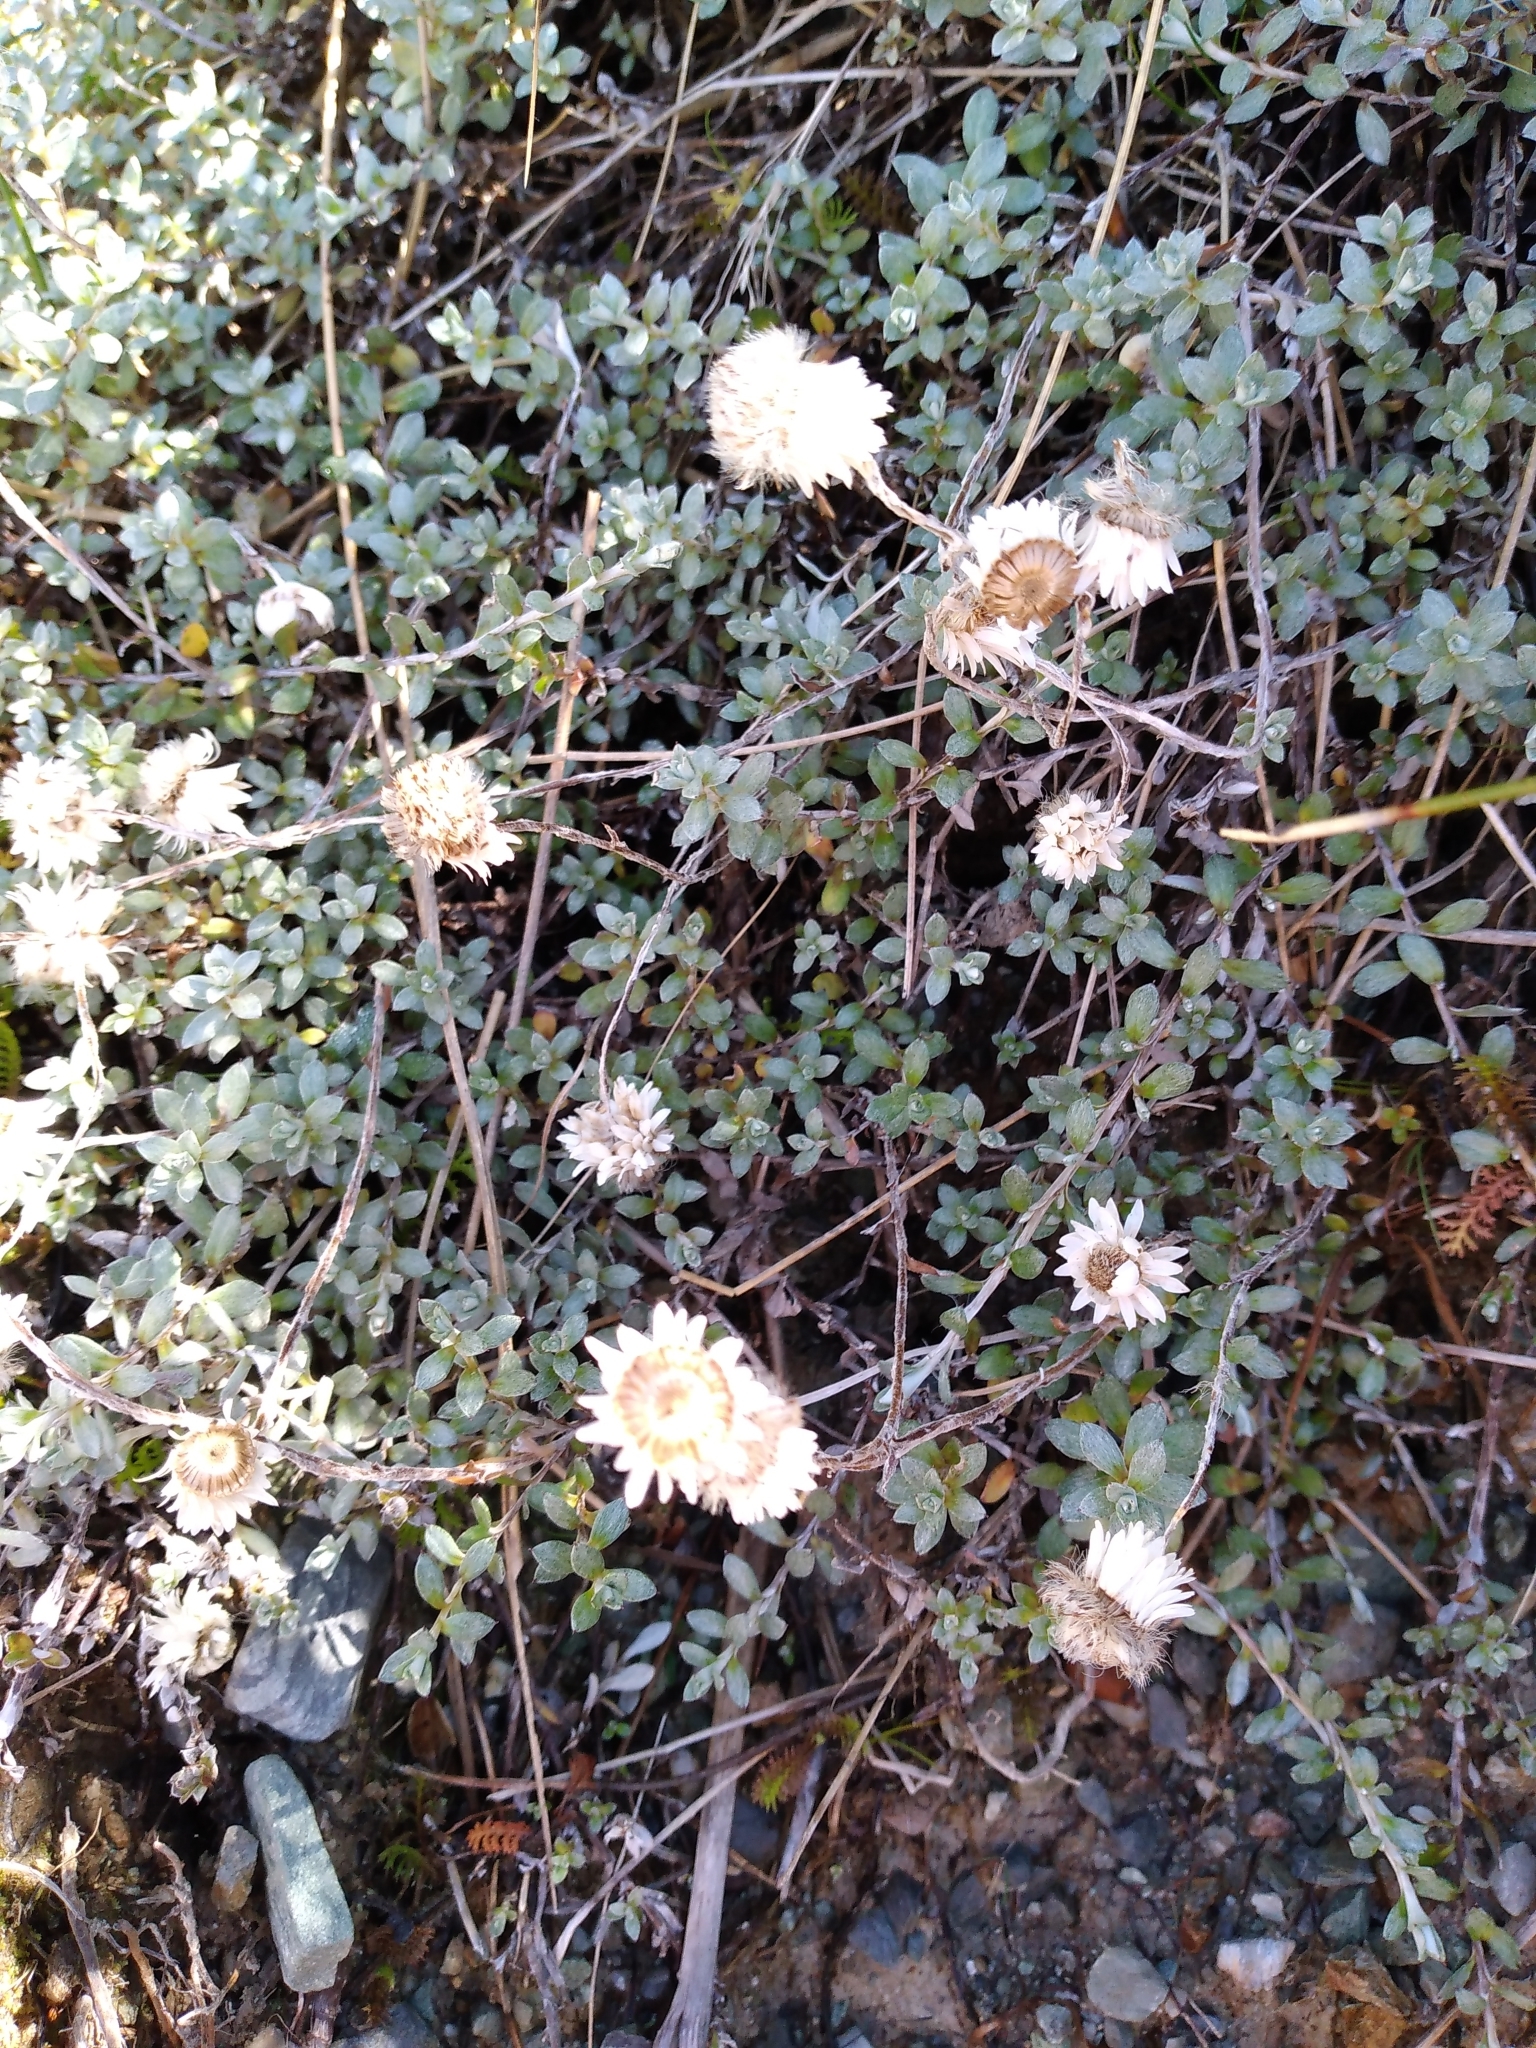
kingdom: Plantae
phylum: Tracheophyta
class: Magnoliopsida
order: Asterales
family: Asteraceae
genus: Anaphalioides
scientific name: Anaphalioides bellidioides
